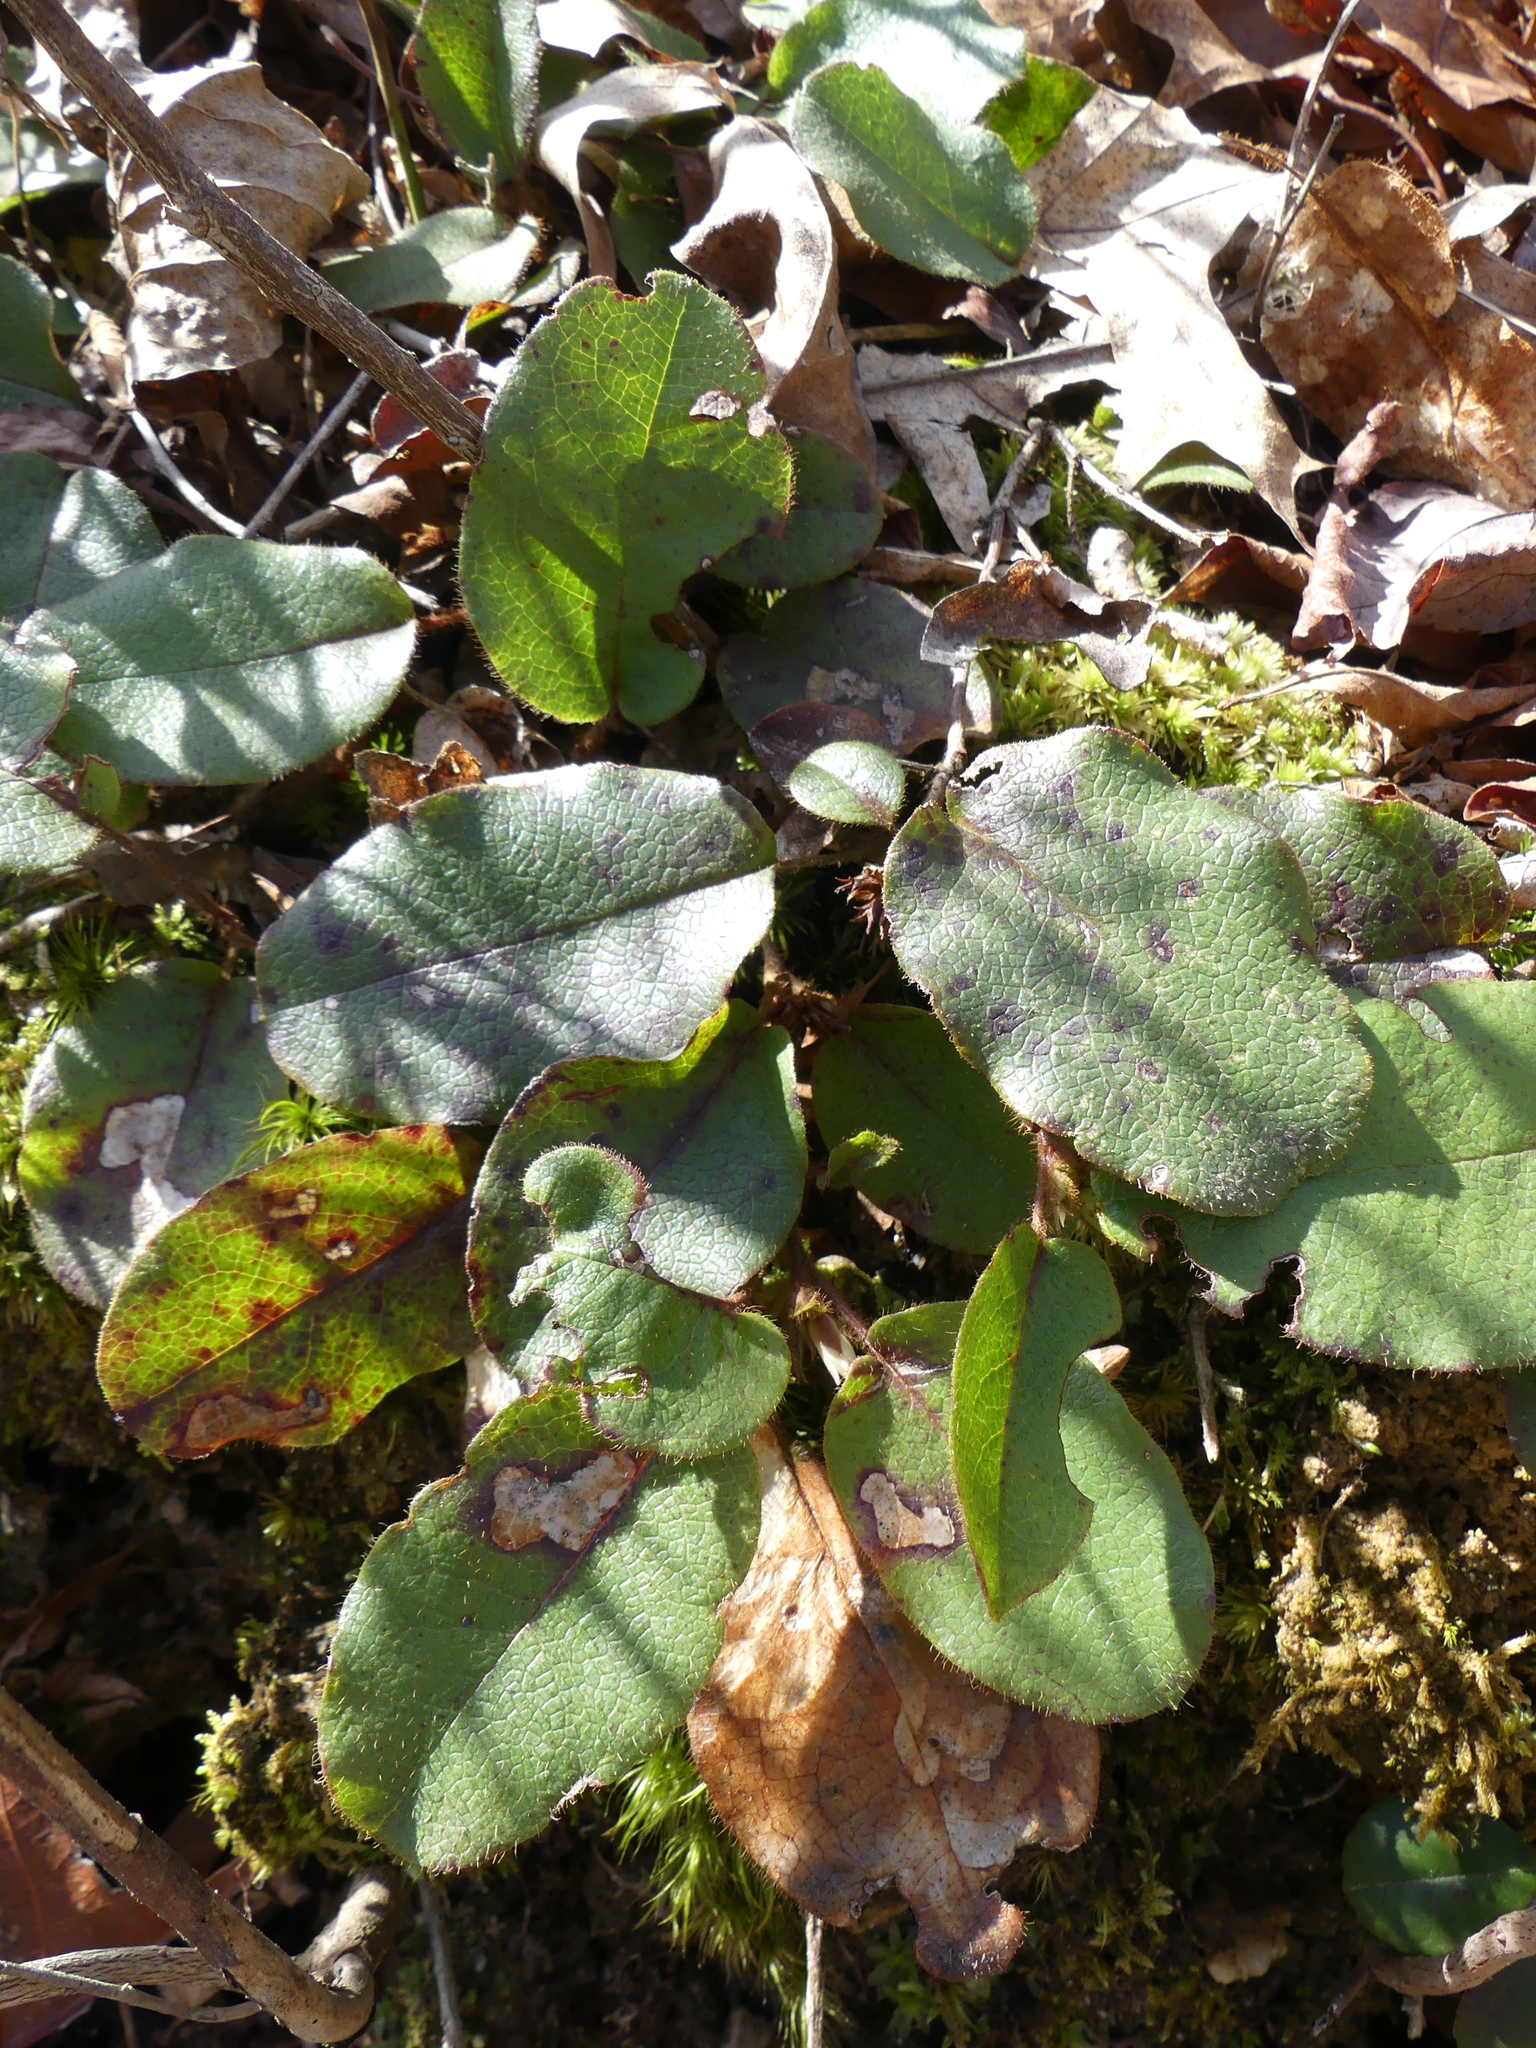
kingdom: Plantae
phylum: Tracheophyta
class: Magnoliopsida
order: Ericales
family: Ericaceae
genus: Epigaea
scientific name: Epigaea repens
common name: Gravelroot
